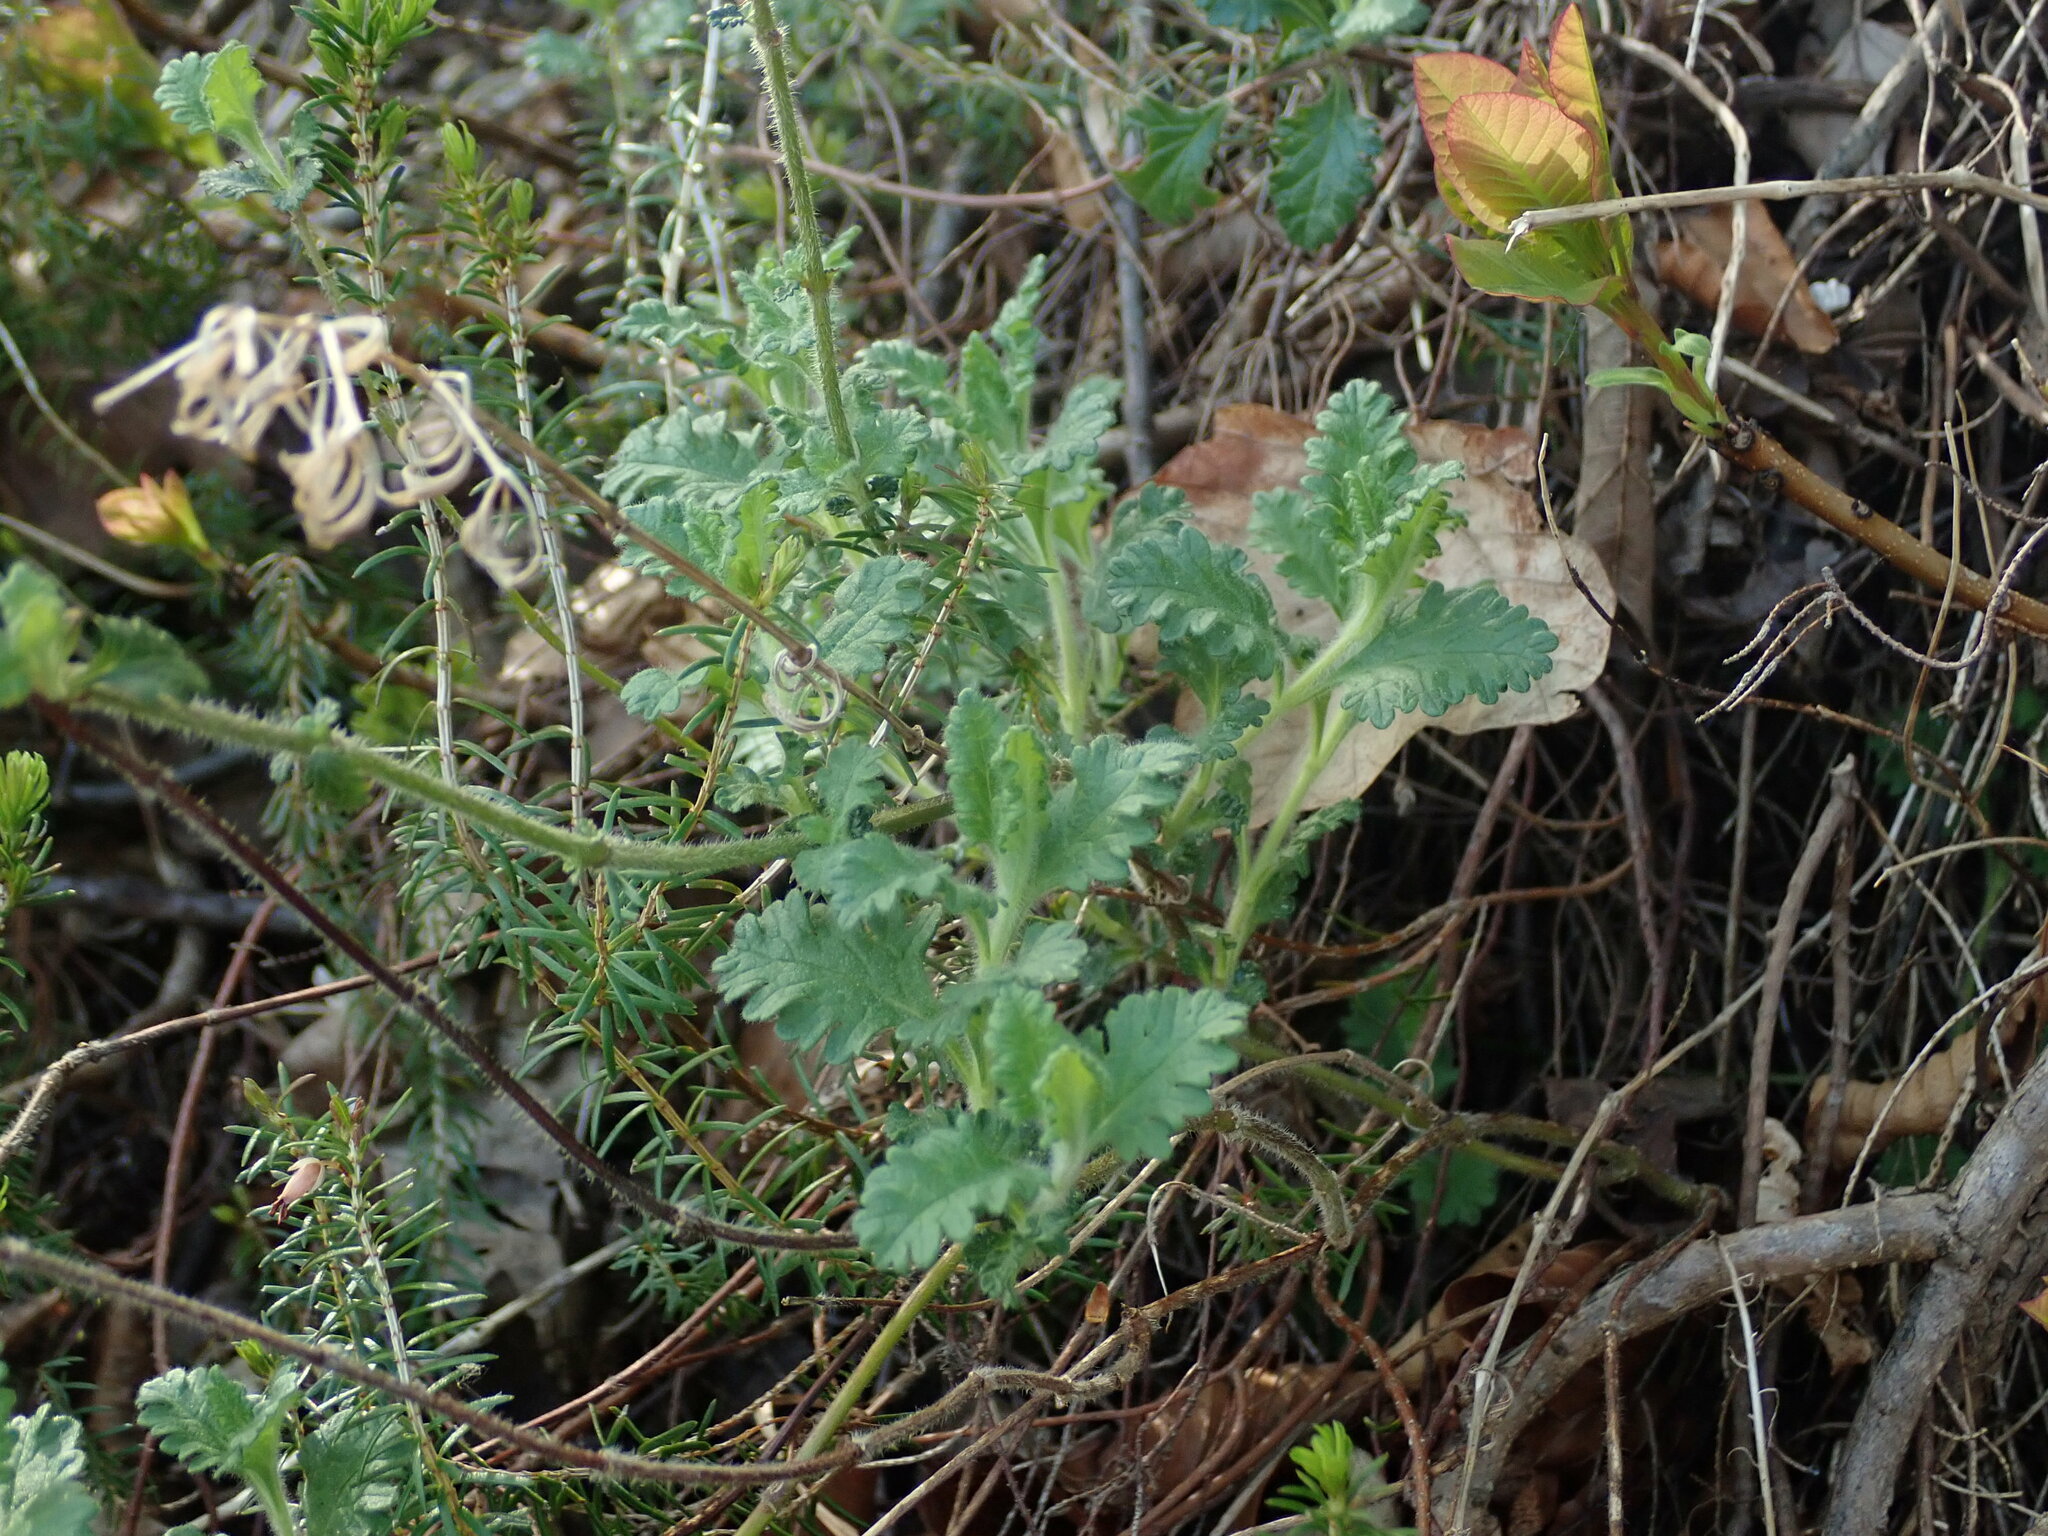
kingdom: Plantae
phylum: Tracheophyta
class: Magnoliopsida
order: Lamiales
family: Lamiaceae
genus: Teucrium
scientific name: Teucrium chamaedrys
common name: Wall germander
